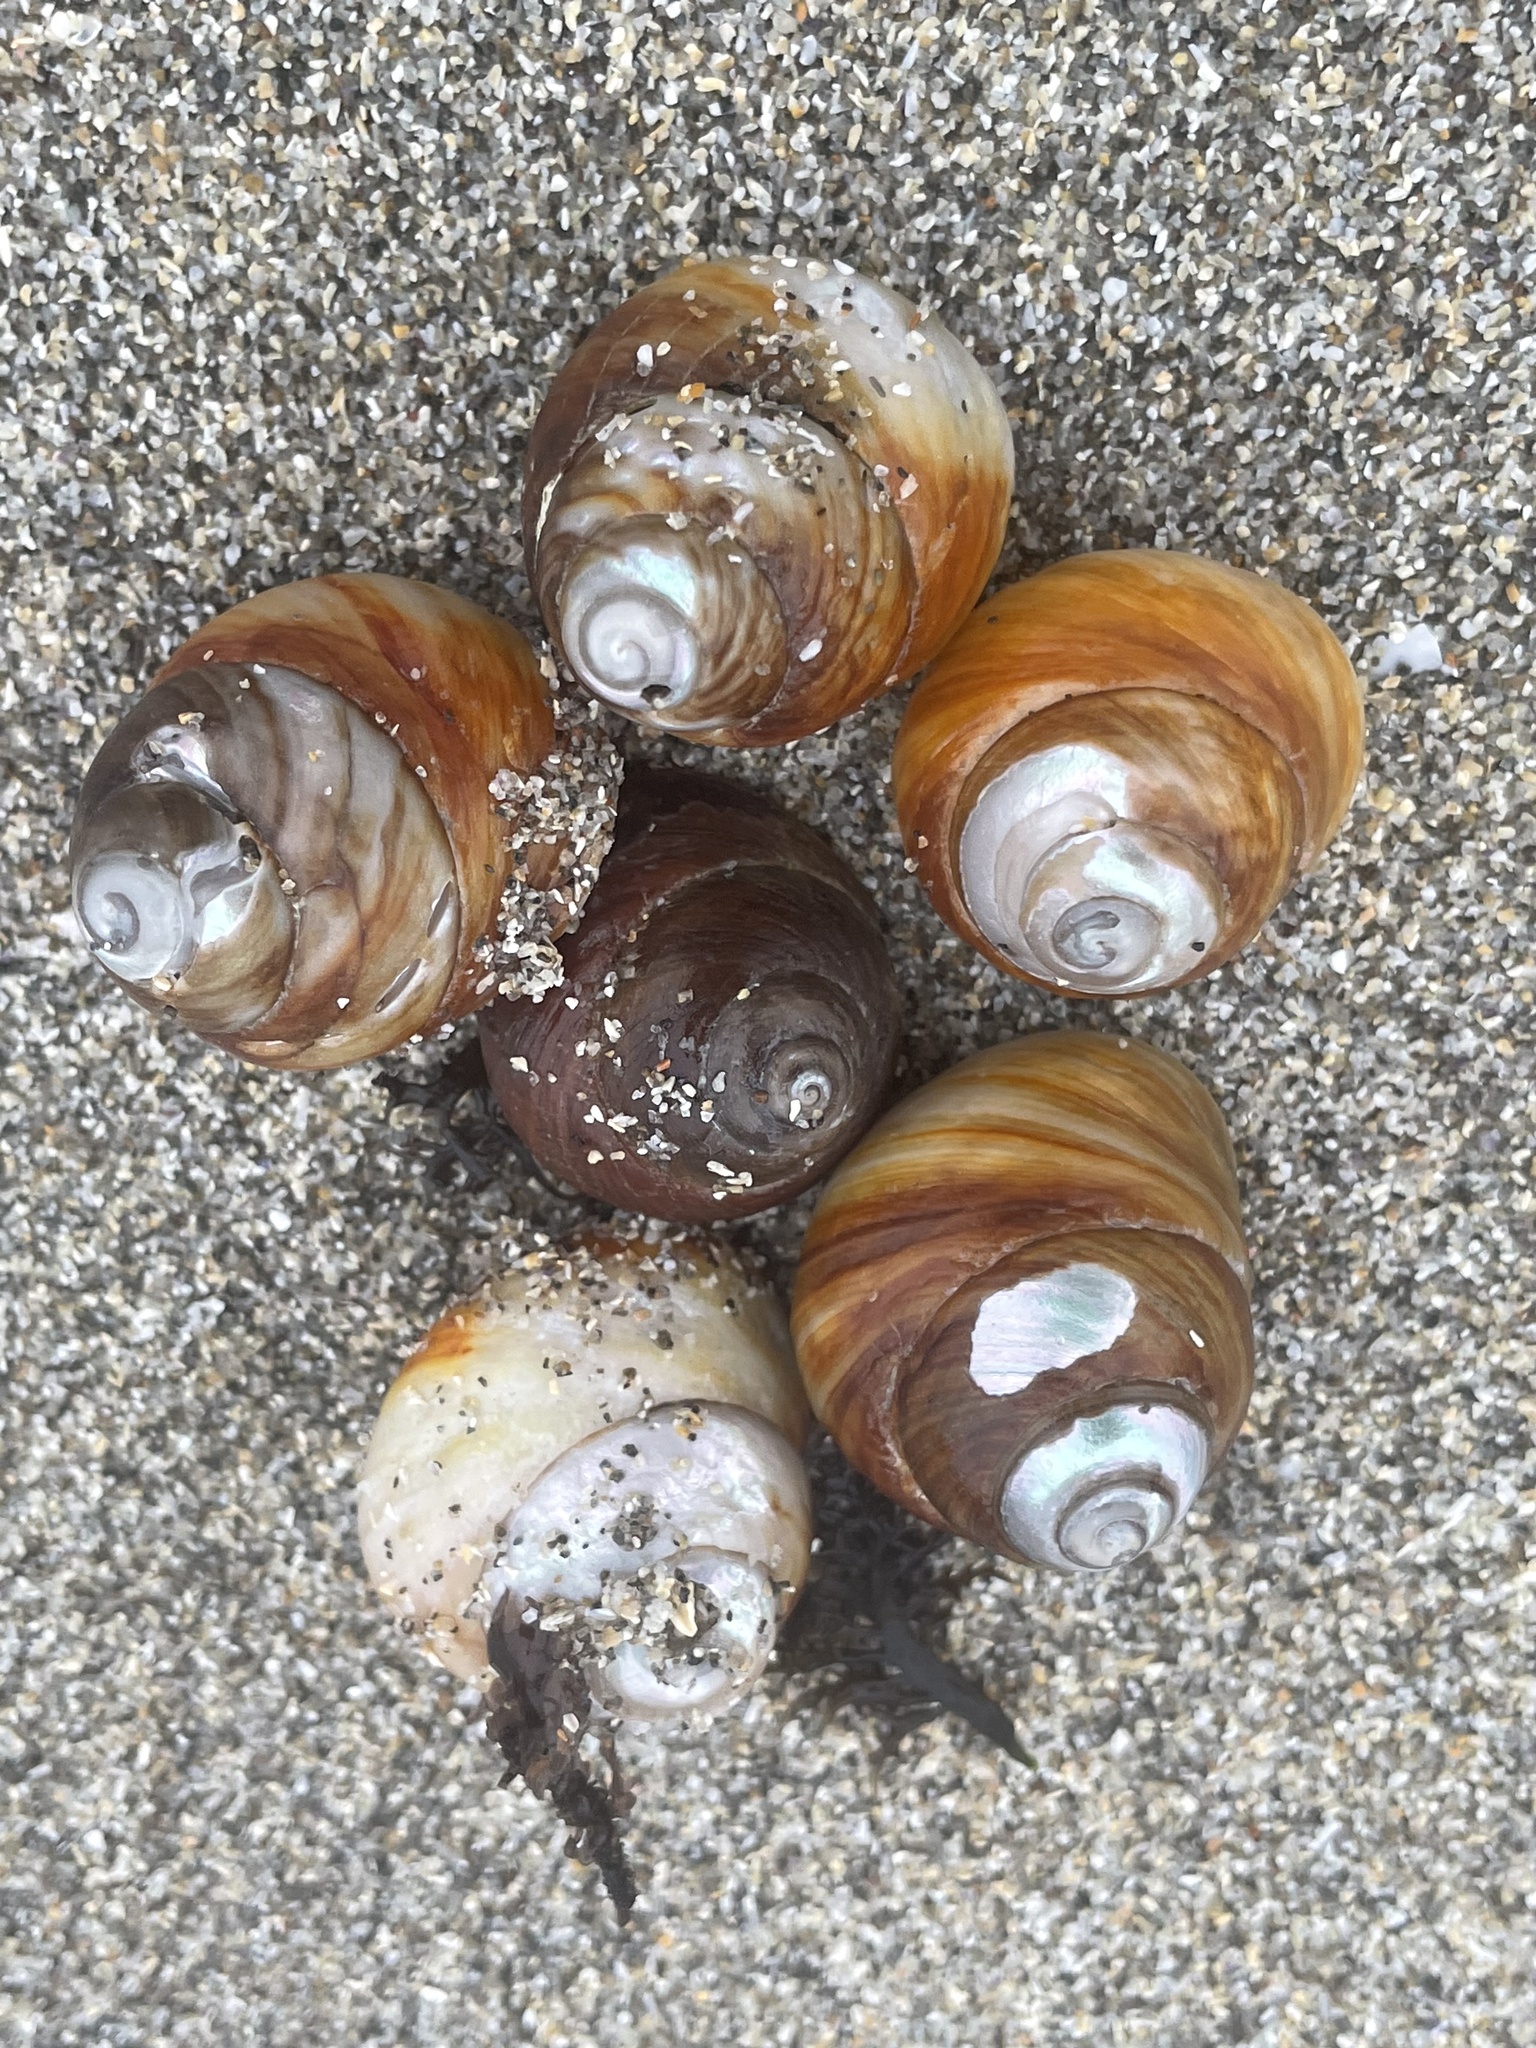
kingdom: Animalia
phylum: Mollusca
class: Gastropoda
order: Trochida
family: Tegulidae
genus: Tegula
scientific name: Tegula brunnea
